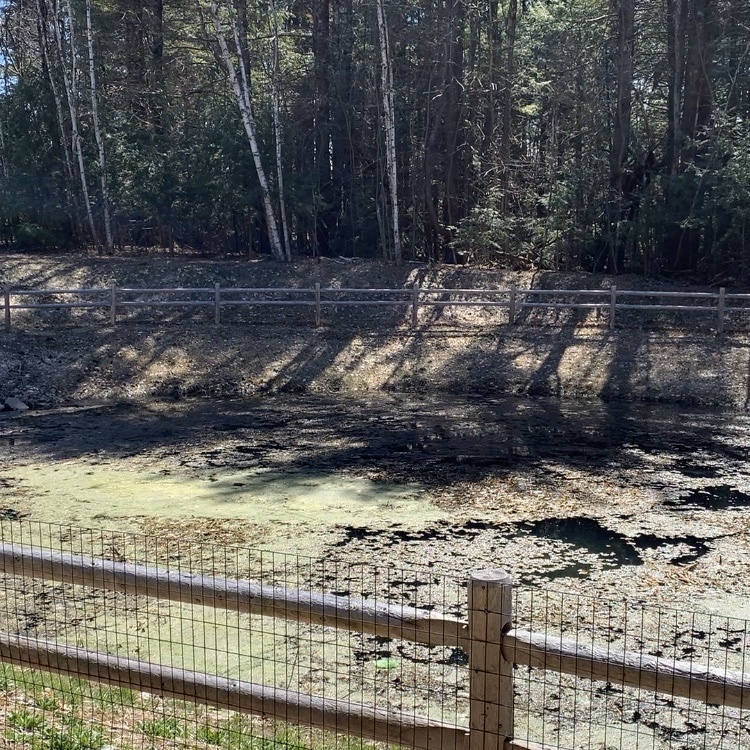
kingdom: Animalia
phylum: Chordata
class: Amphibia
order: Anura
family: Ranidae
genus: Lithobates
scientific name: Lithobates sylvaticus
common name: Wood frog
